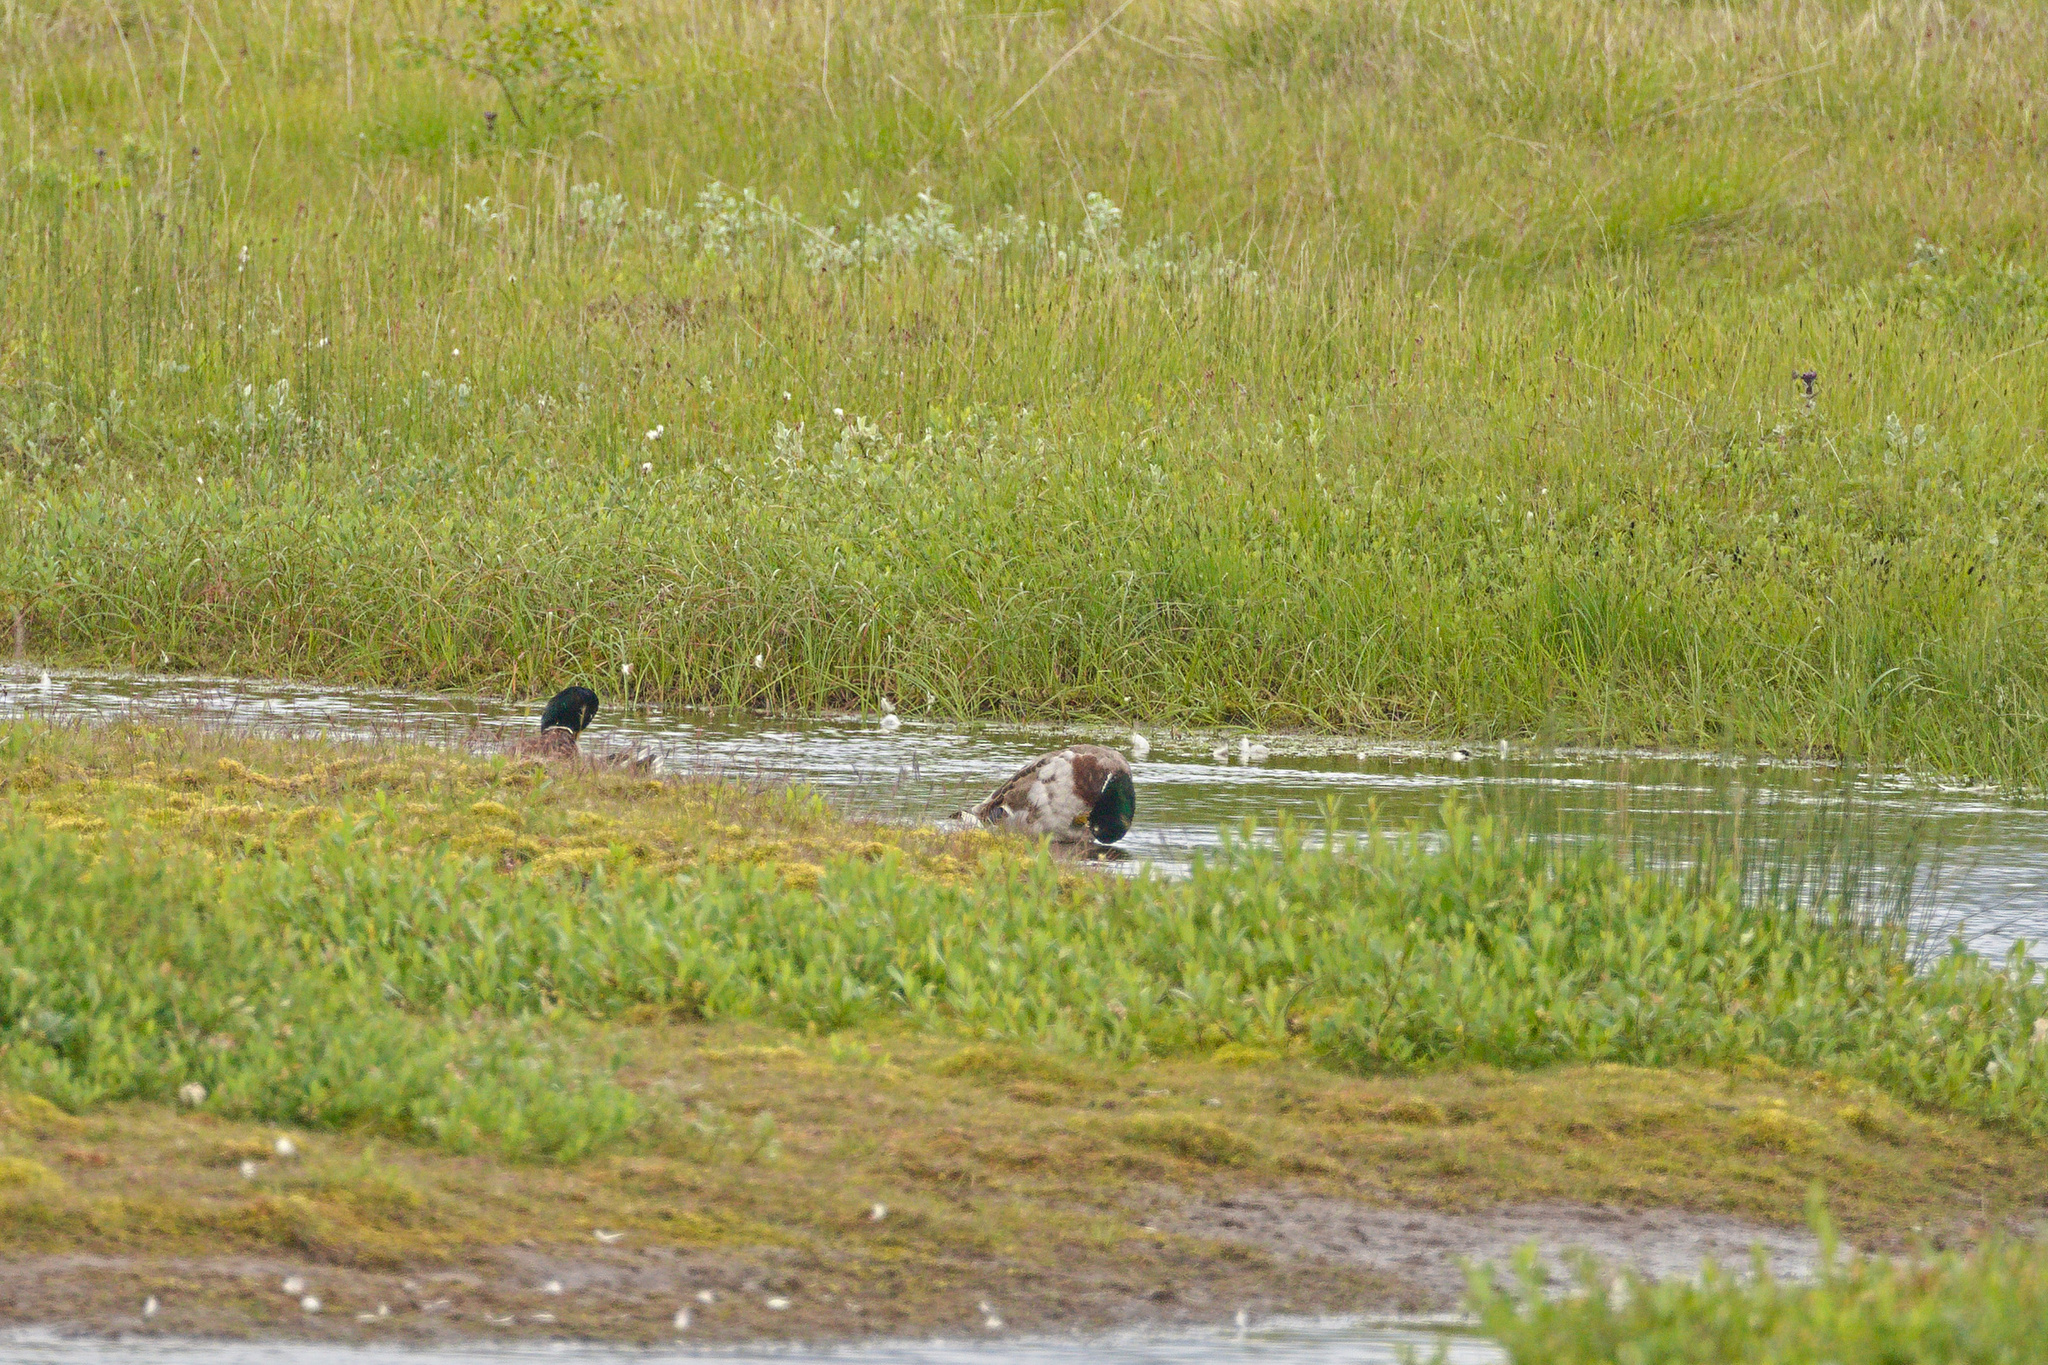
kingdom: Animalia
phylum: Chordata
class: Aves
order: Anseriformes
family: Anatidae
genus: Anas
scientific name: Anas platyrhynchos
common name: Mallard
